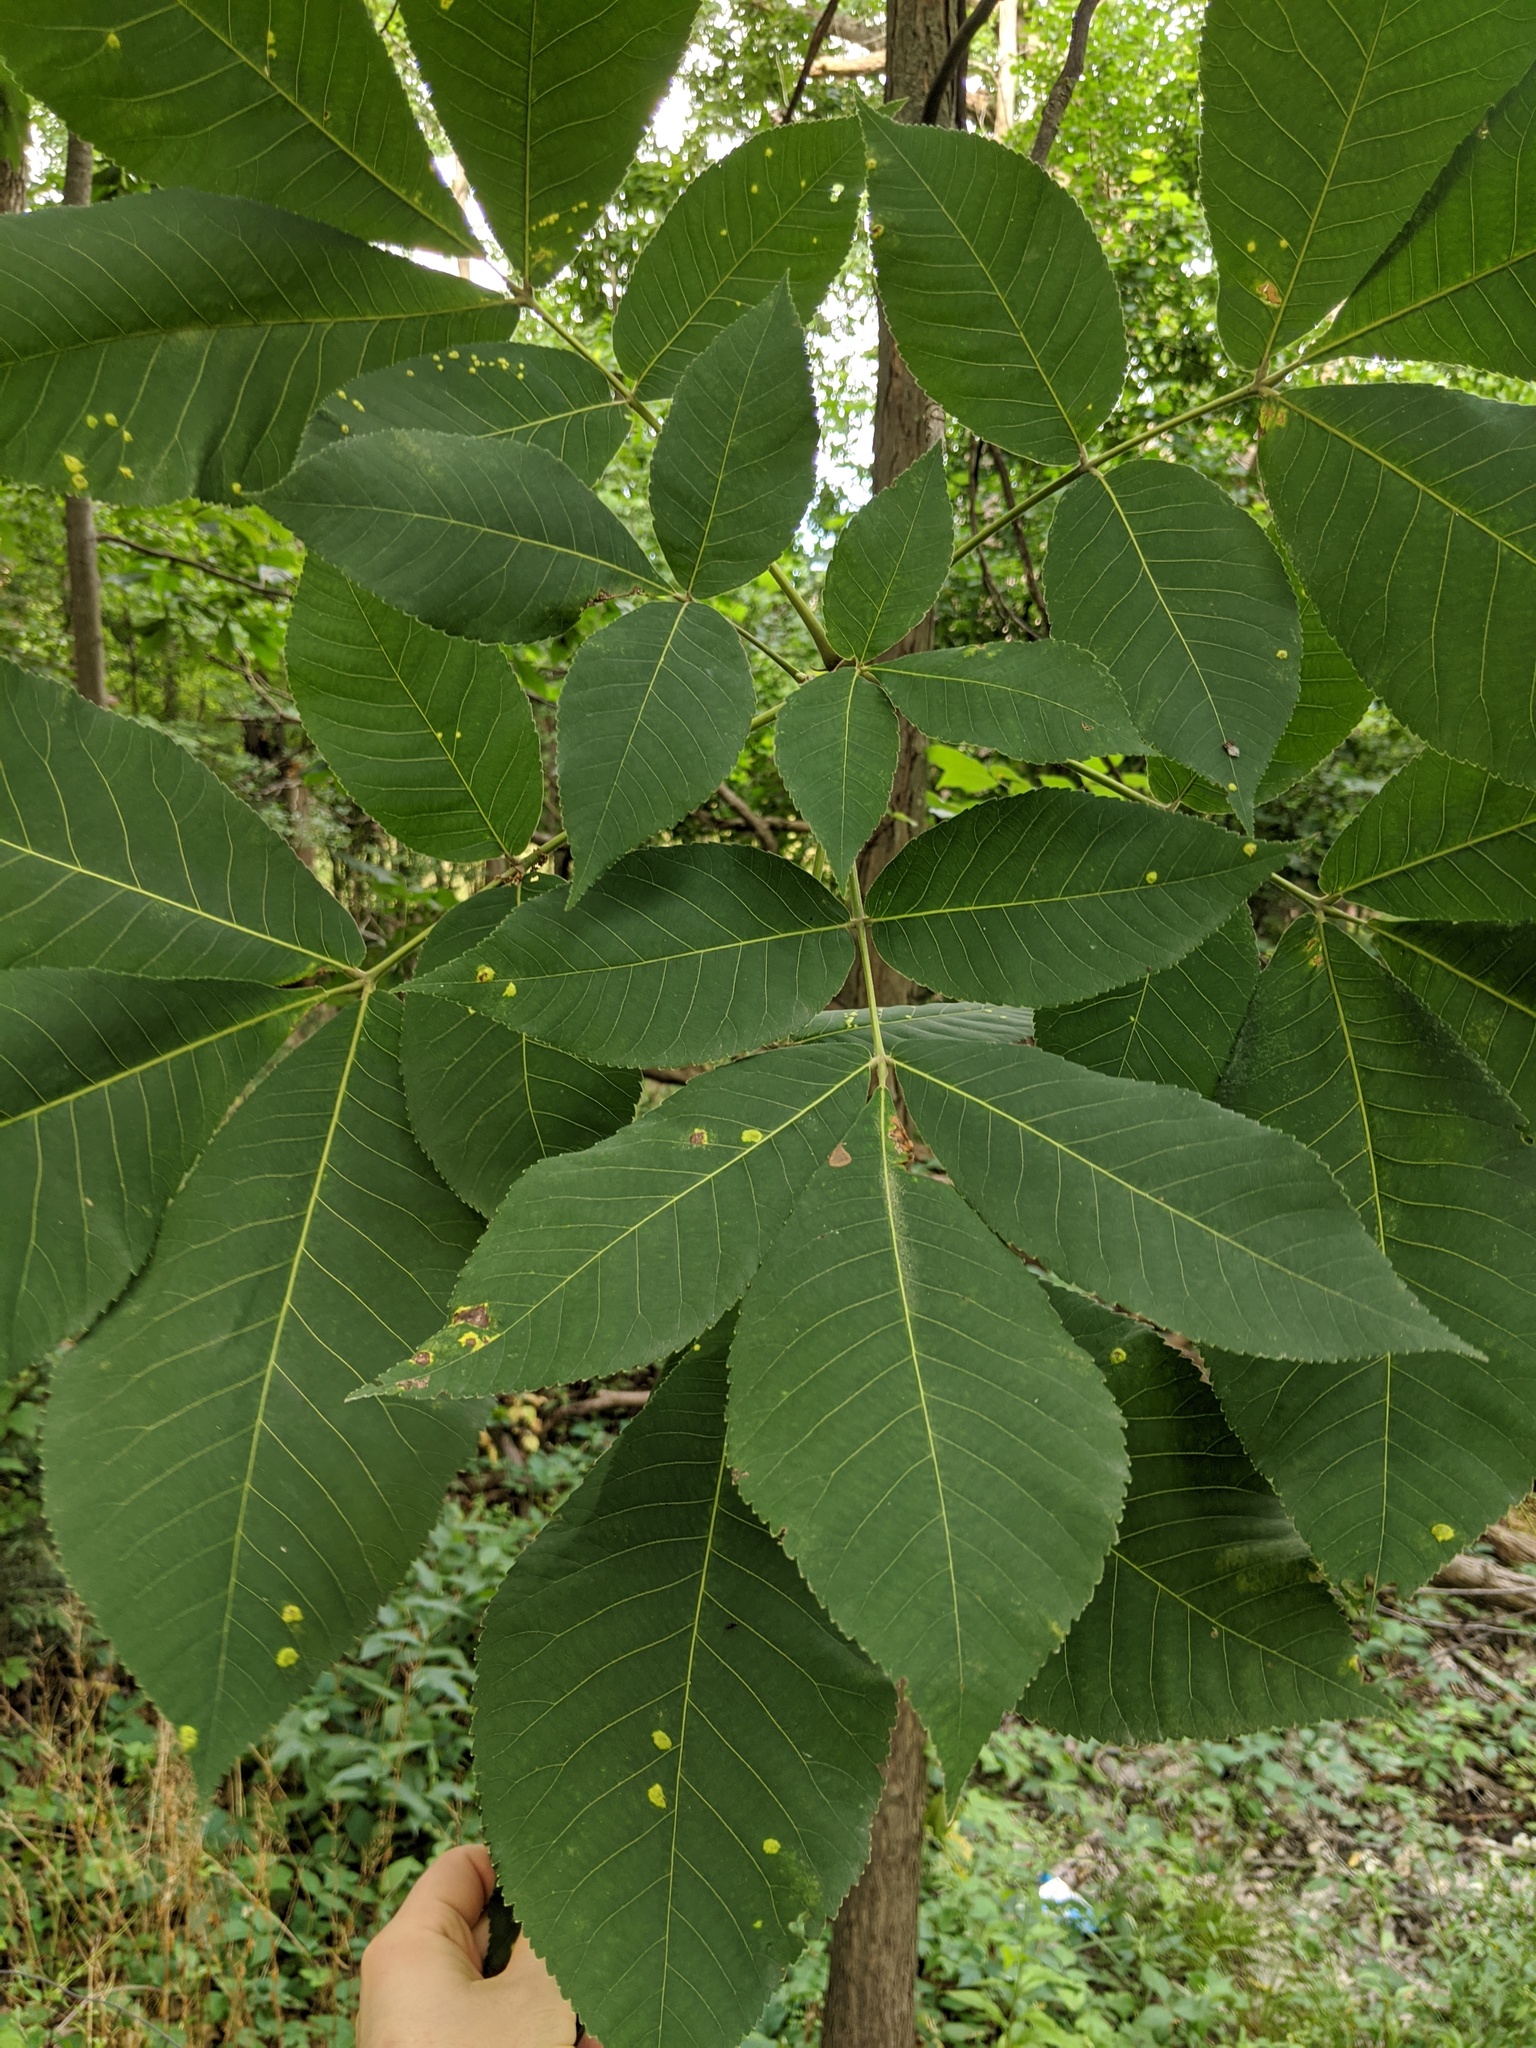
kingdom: Plantae
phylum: Tracheophyta
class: Magnoliopsida
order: Fagales
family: Juglandaceae
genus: Carya
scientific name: Carya ovata
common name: Shagbark hickory
